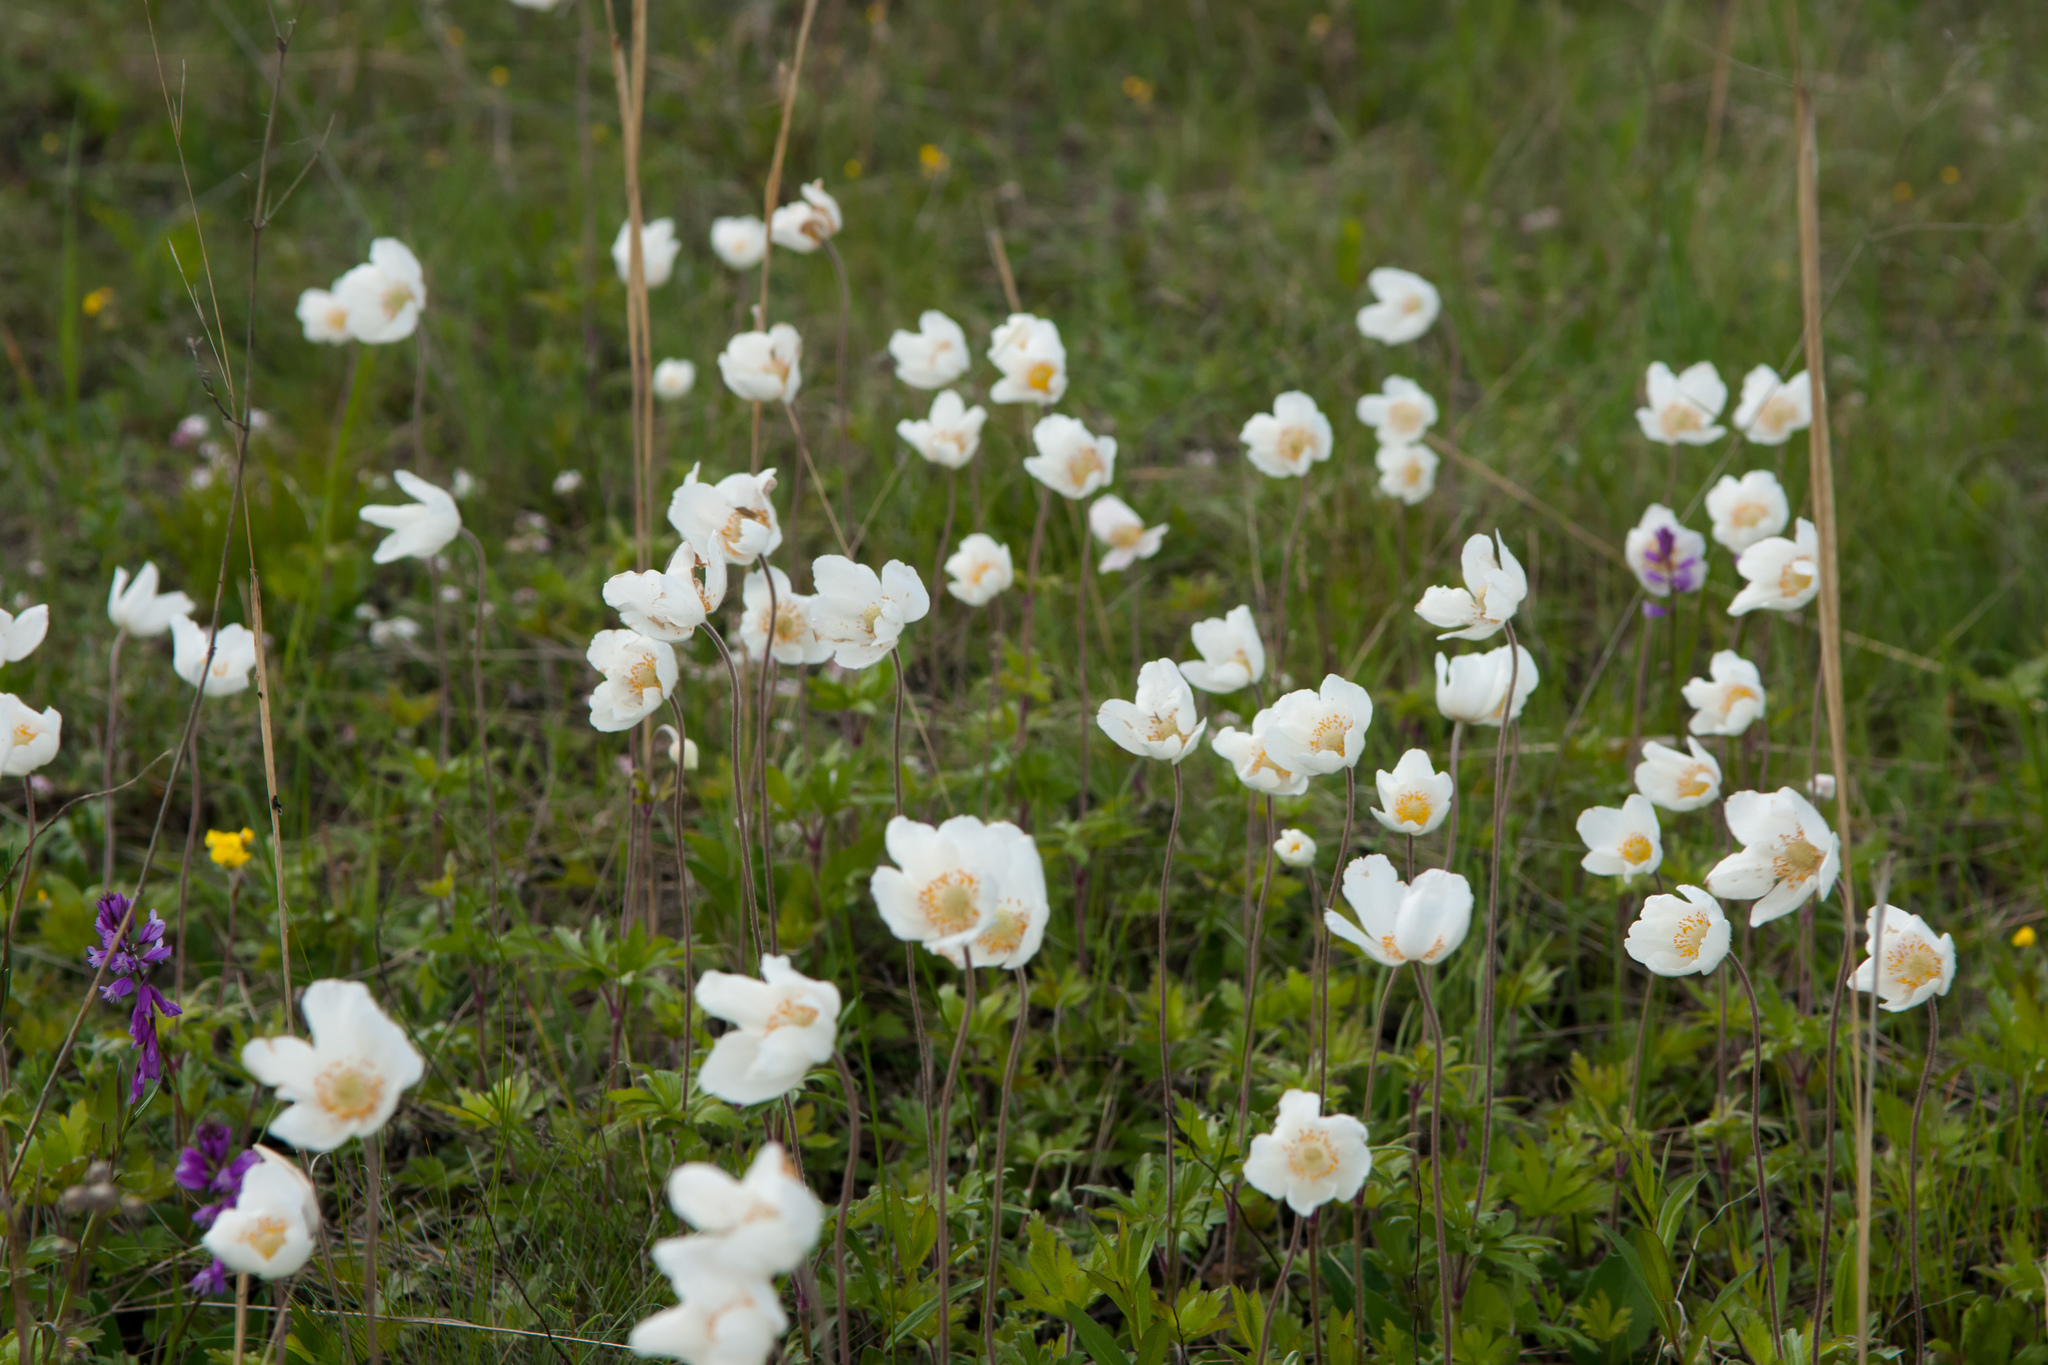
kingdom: Plantae
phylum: Tracheophyta
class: Magnoliopsida
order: Ranunculales
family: Ranunculaceae
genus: Anemone
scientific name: Anemone sylvestris
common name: Snowdrop anemone
